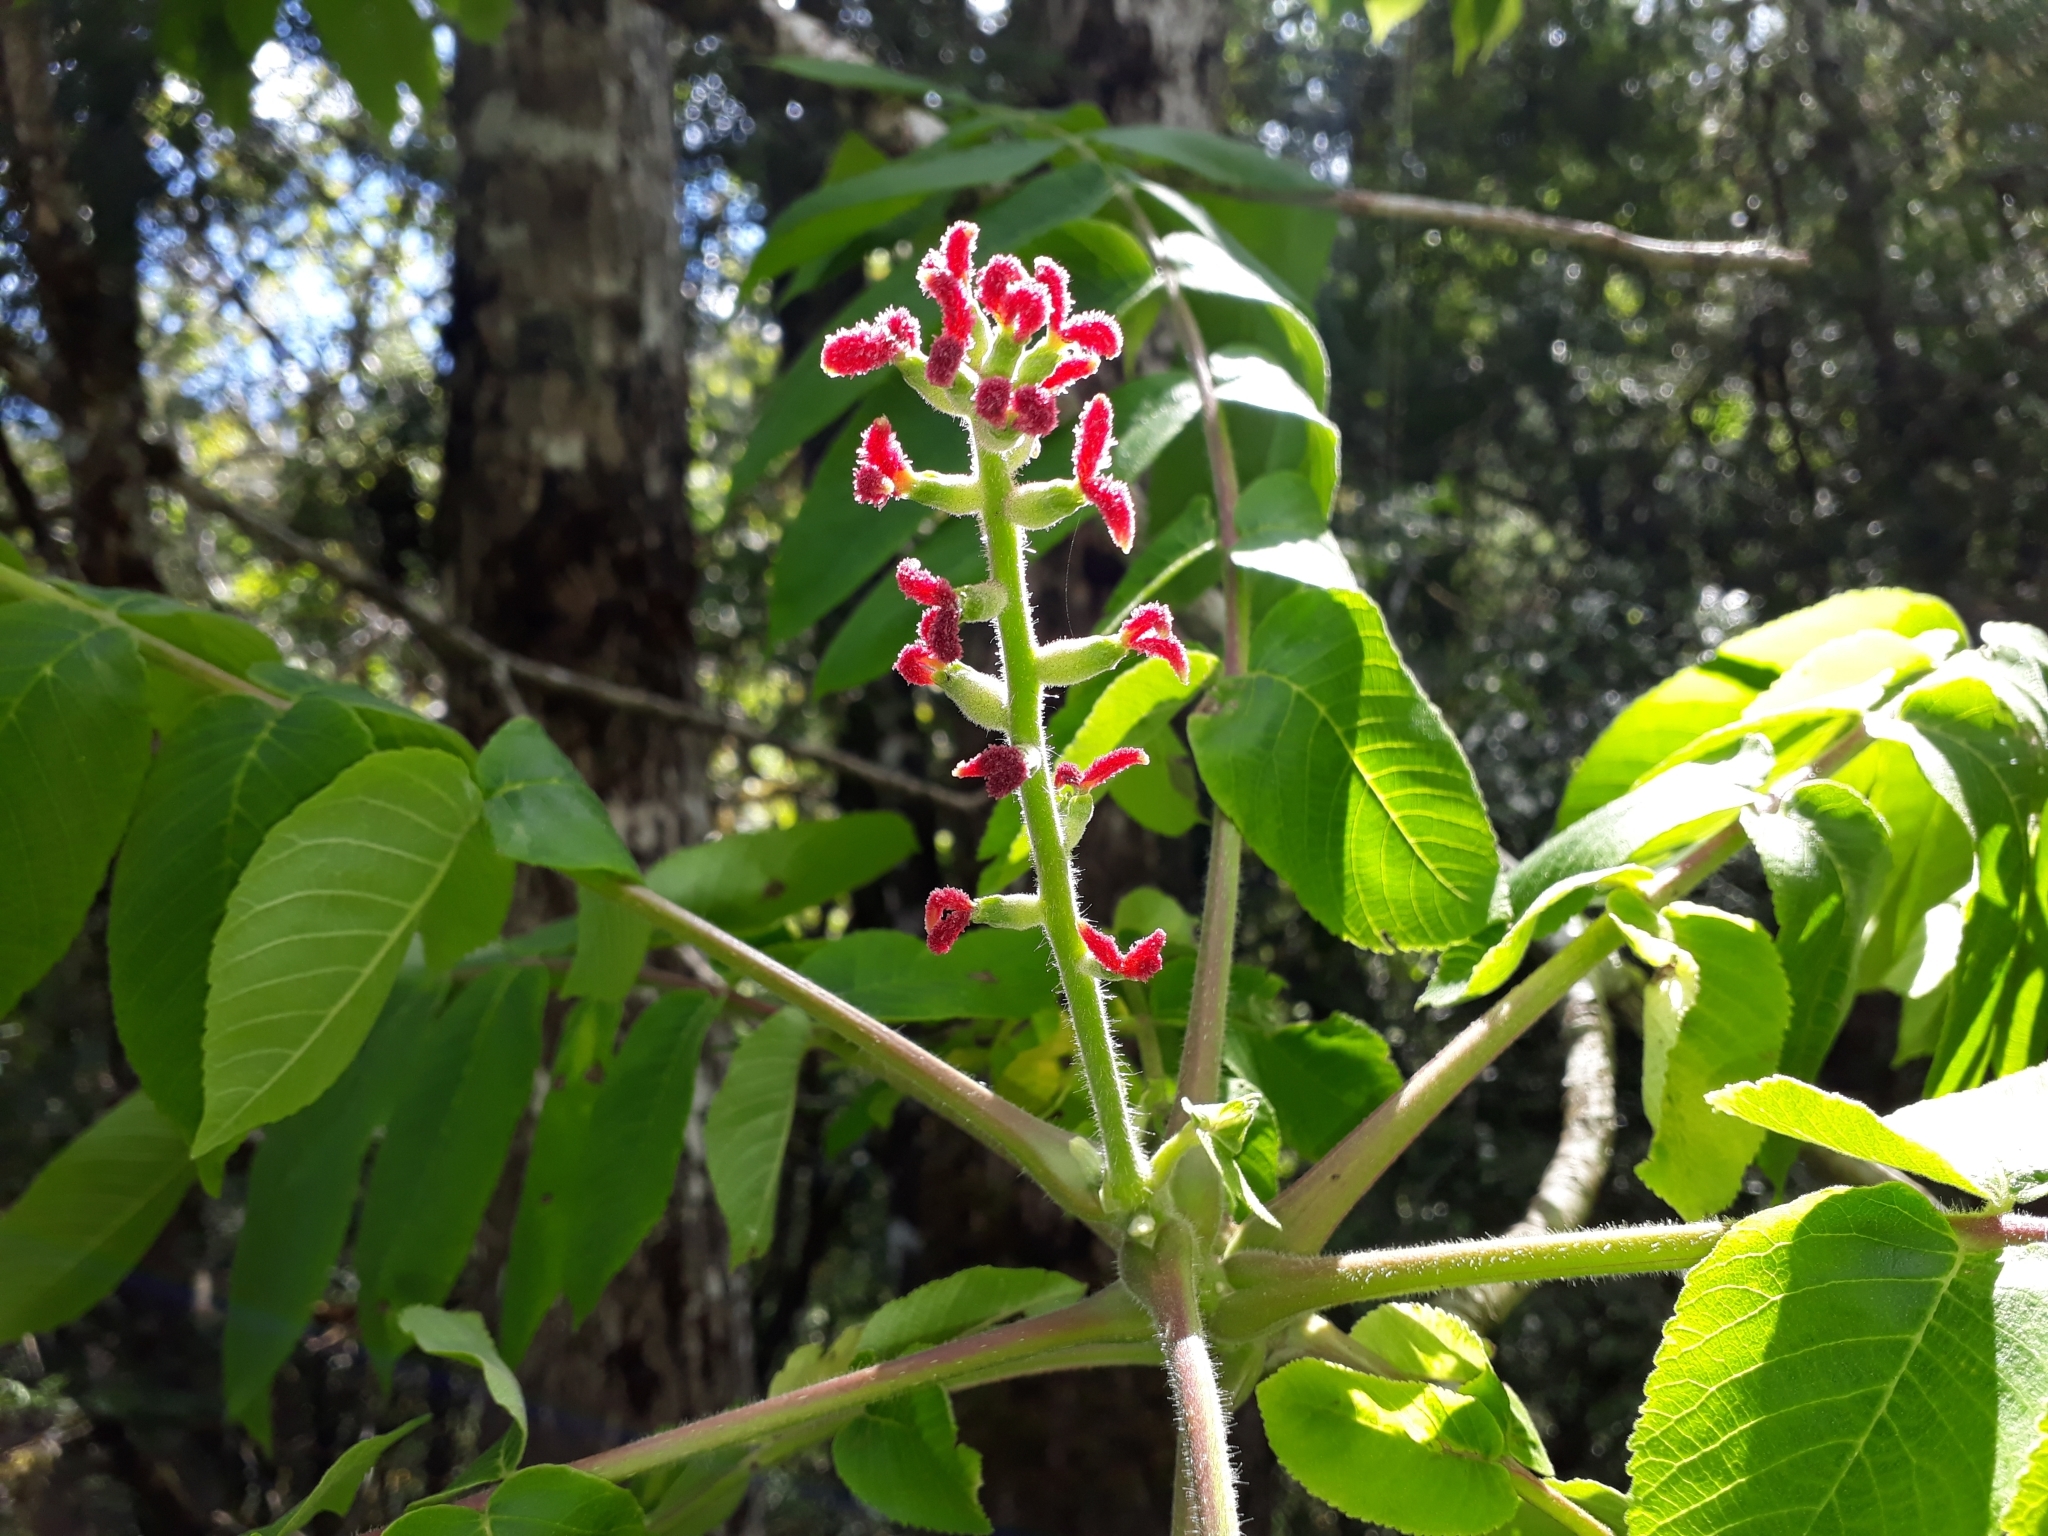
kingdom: Plantae
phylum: Tracheophyta
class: Magnoliopsida
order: Fagales
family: Juglandaceae
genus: Juglans
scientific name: Juglans ailantifolia
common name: Japanese walnut
